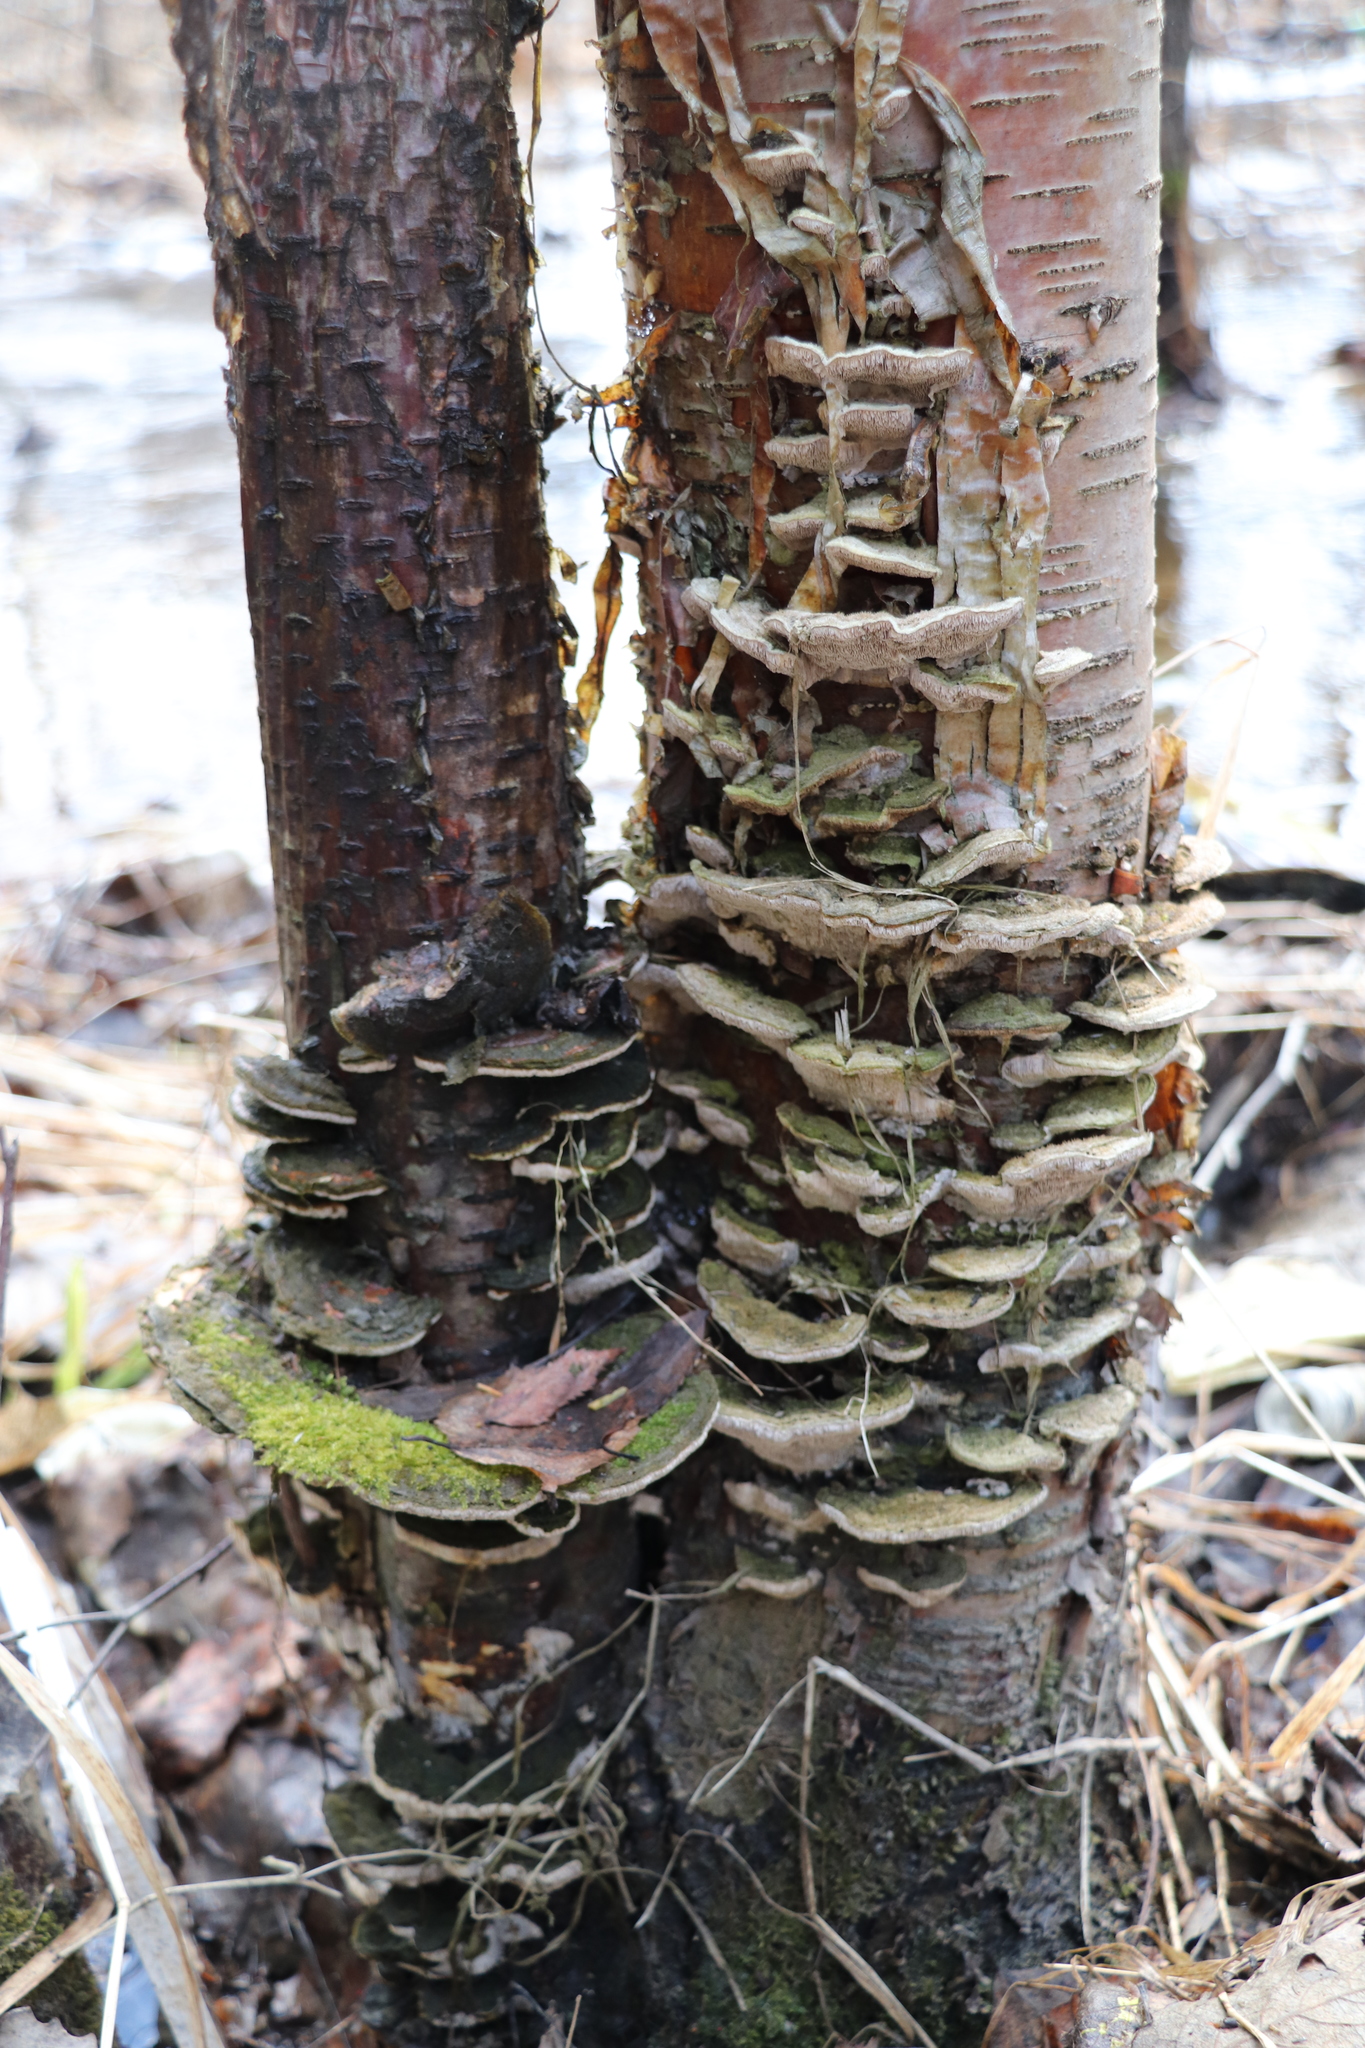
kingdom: Fungi
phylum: Basidiomycota
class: Agaricomycetes
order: Polyporales
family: Cerrenaceae
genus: Cerrena
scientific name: Cerrena unicolor
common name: Mossy maze polypore
